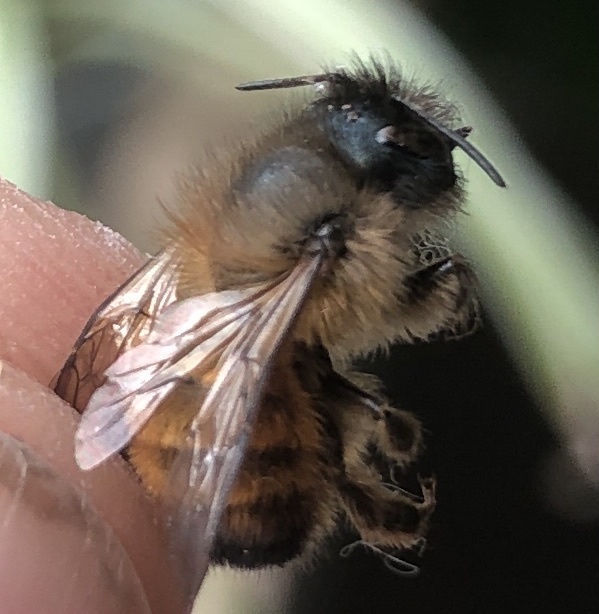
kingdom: Animalia
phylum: Arthropoda
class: Insecta
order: Hymenoptera
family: Megachilidae
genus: Osmia
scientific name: Osmia bicornis
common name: Red mason bee
